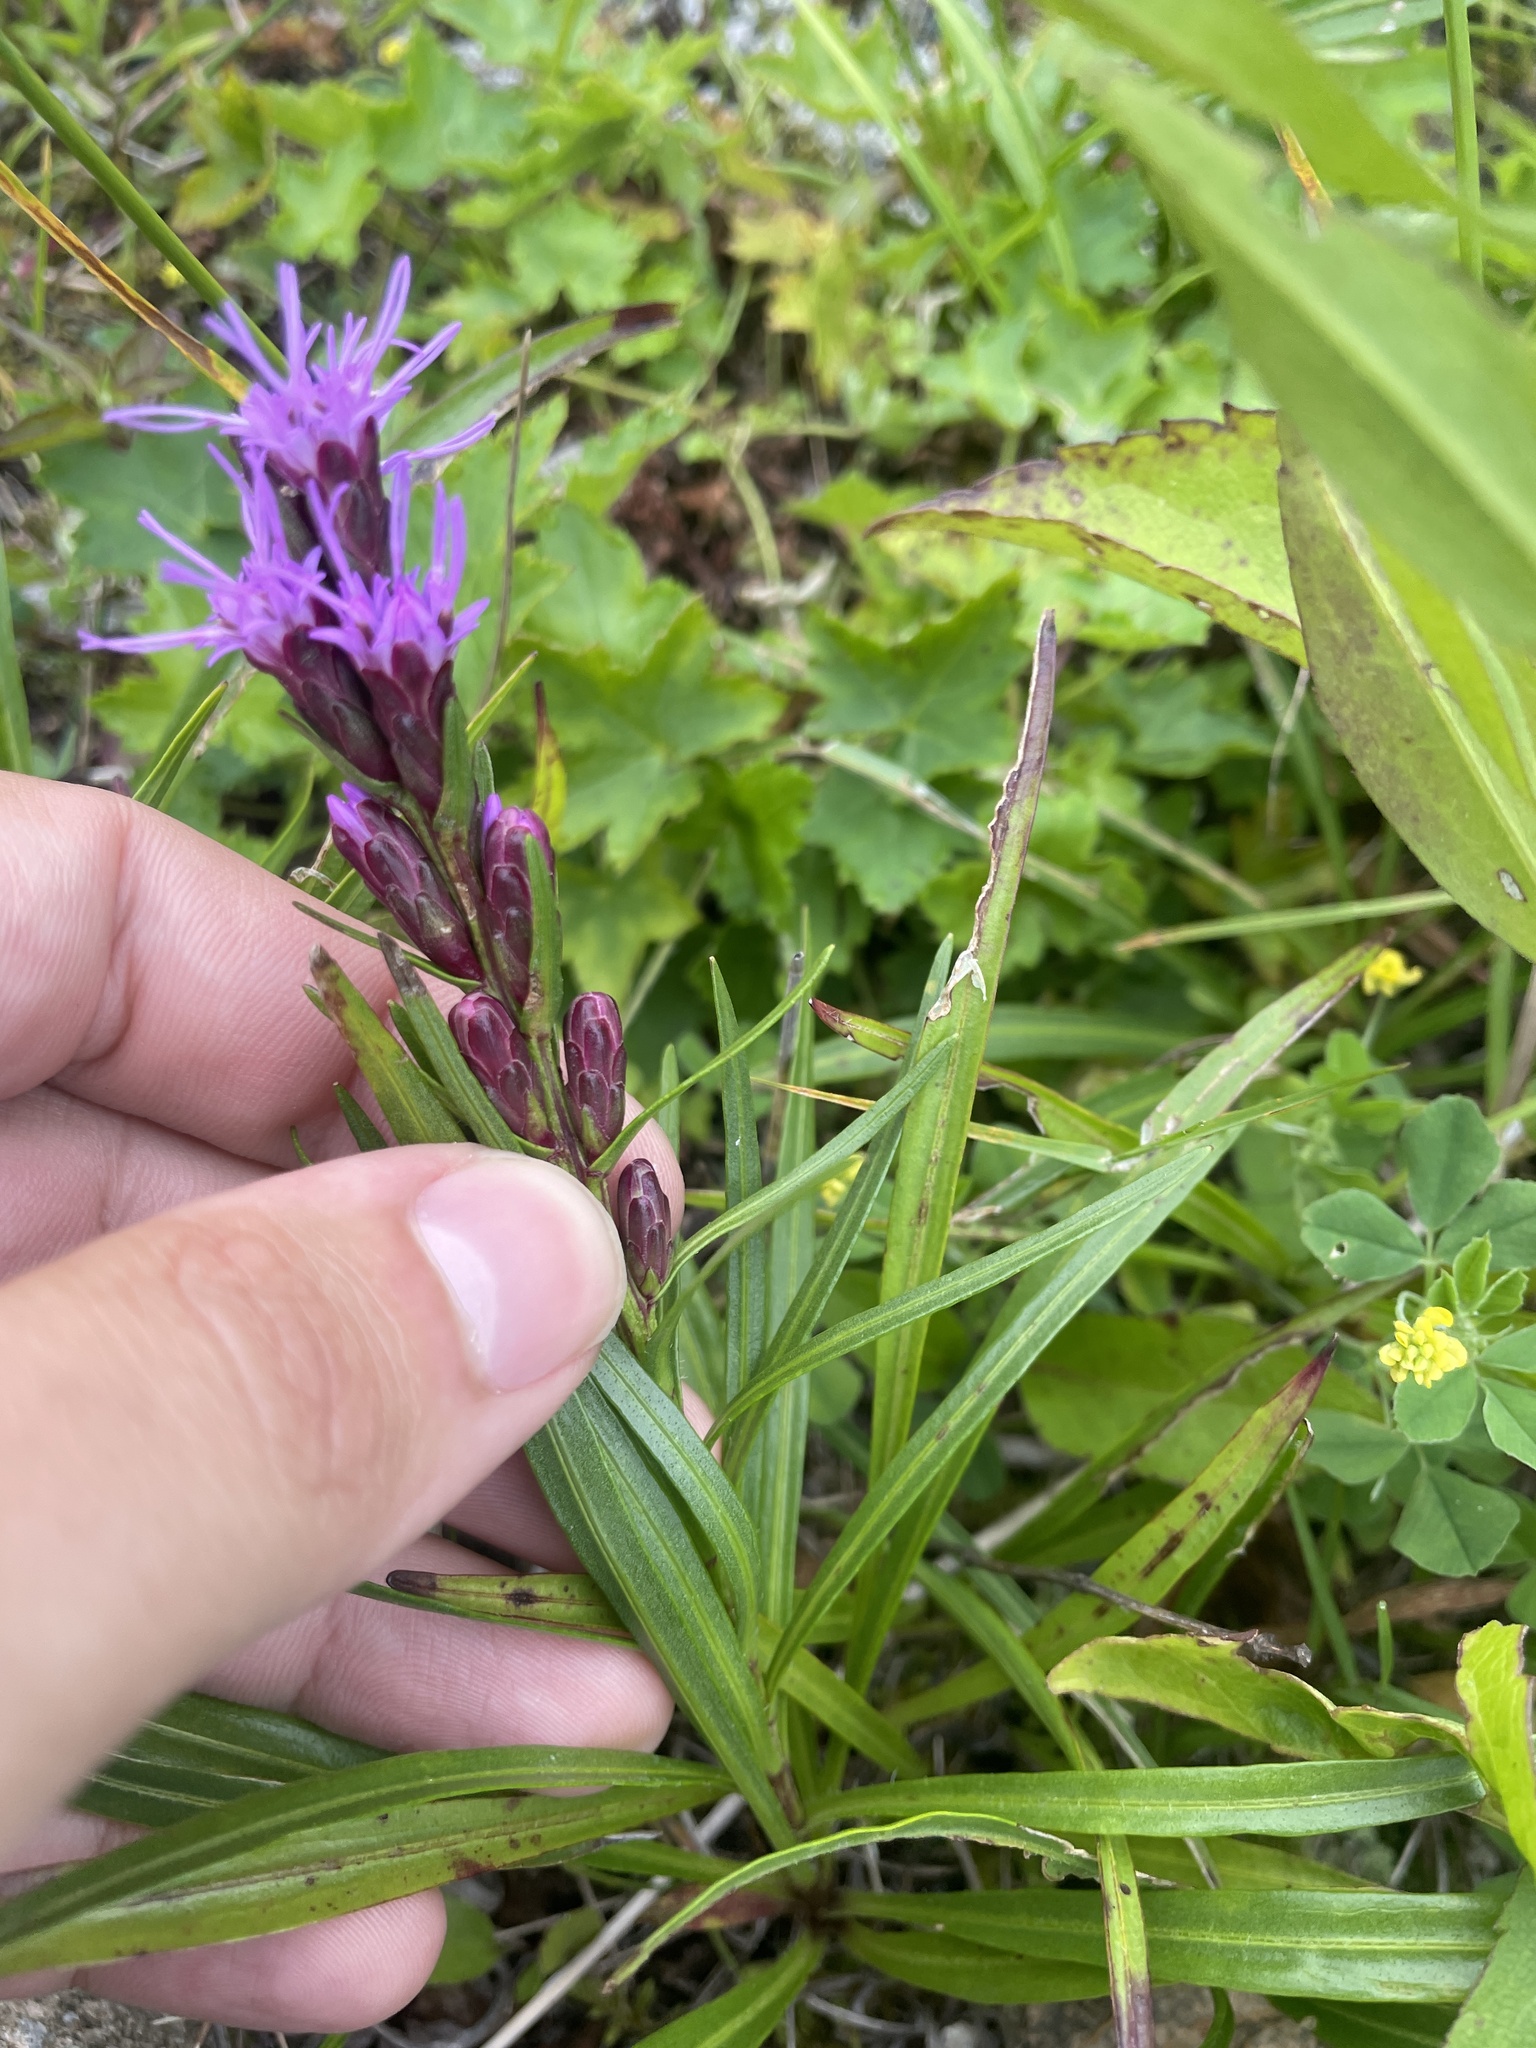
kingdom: Plantae
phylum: Tracheophyta
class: Magnoliopsida
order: Asterales
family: Asteraceae
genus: Liatris
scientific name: Liatris helleri
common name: Heller's blazingstar
